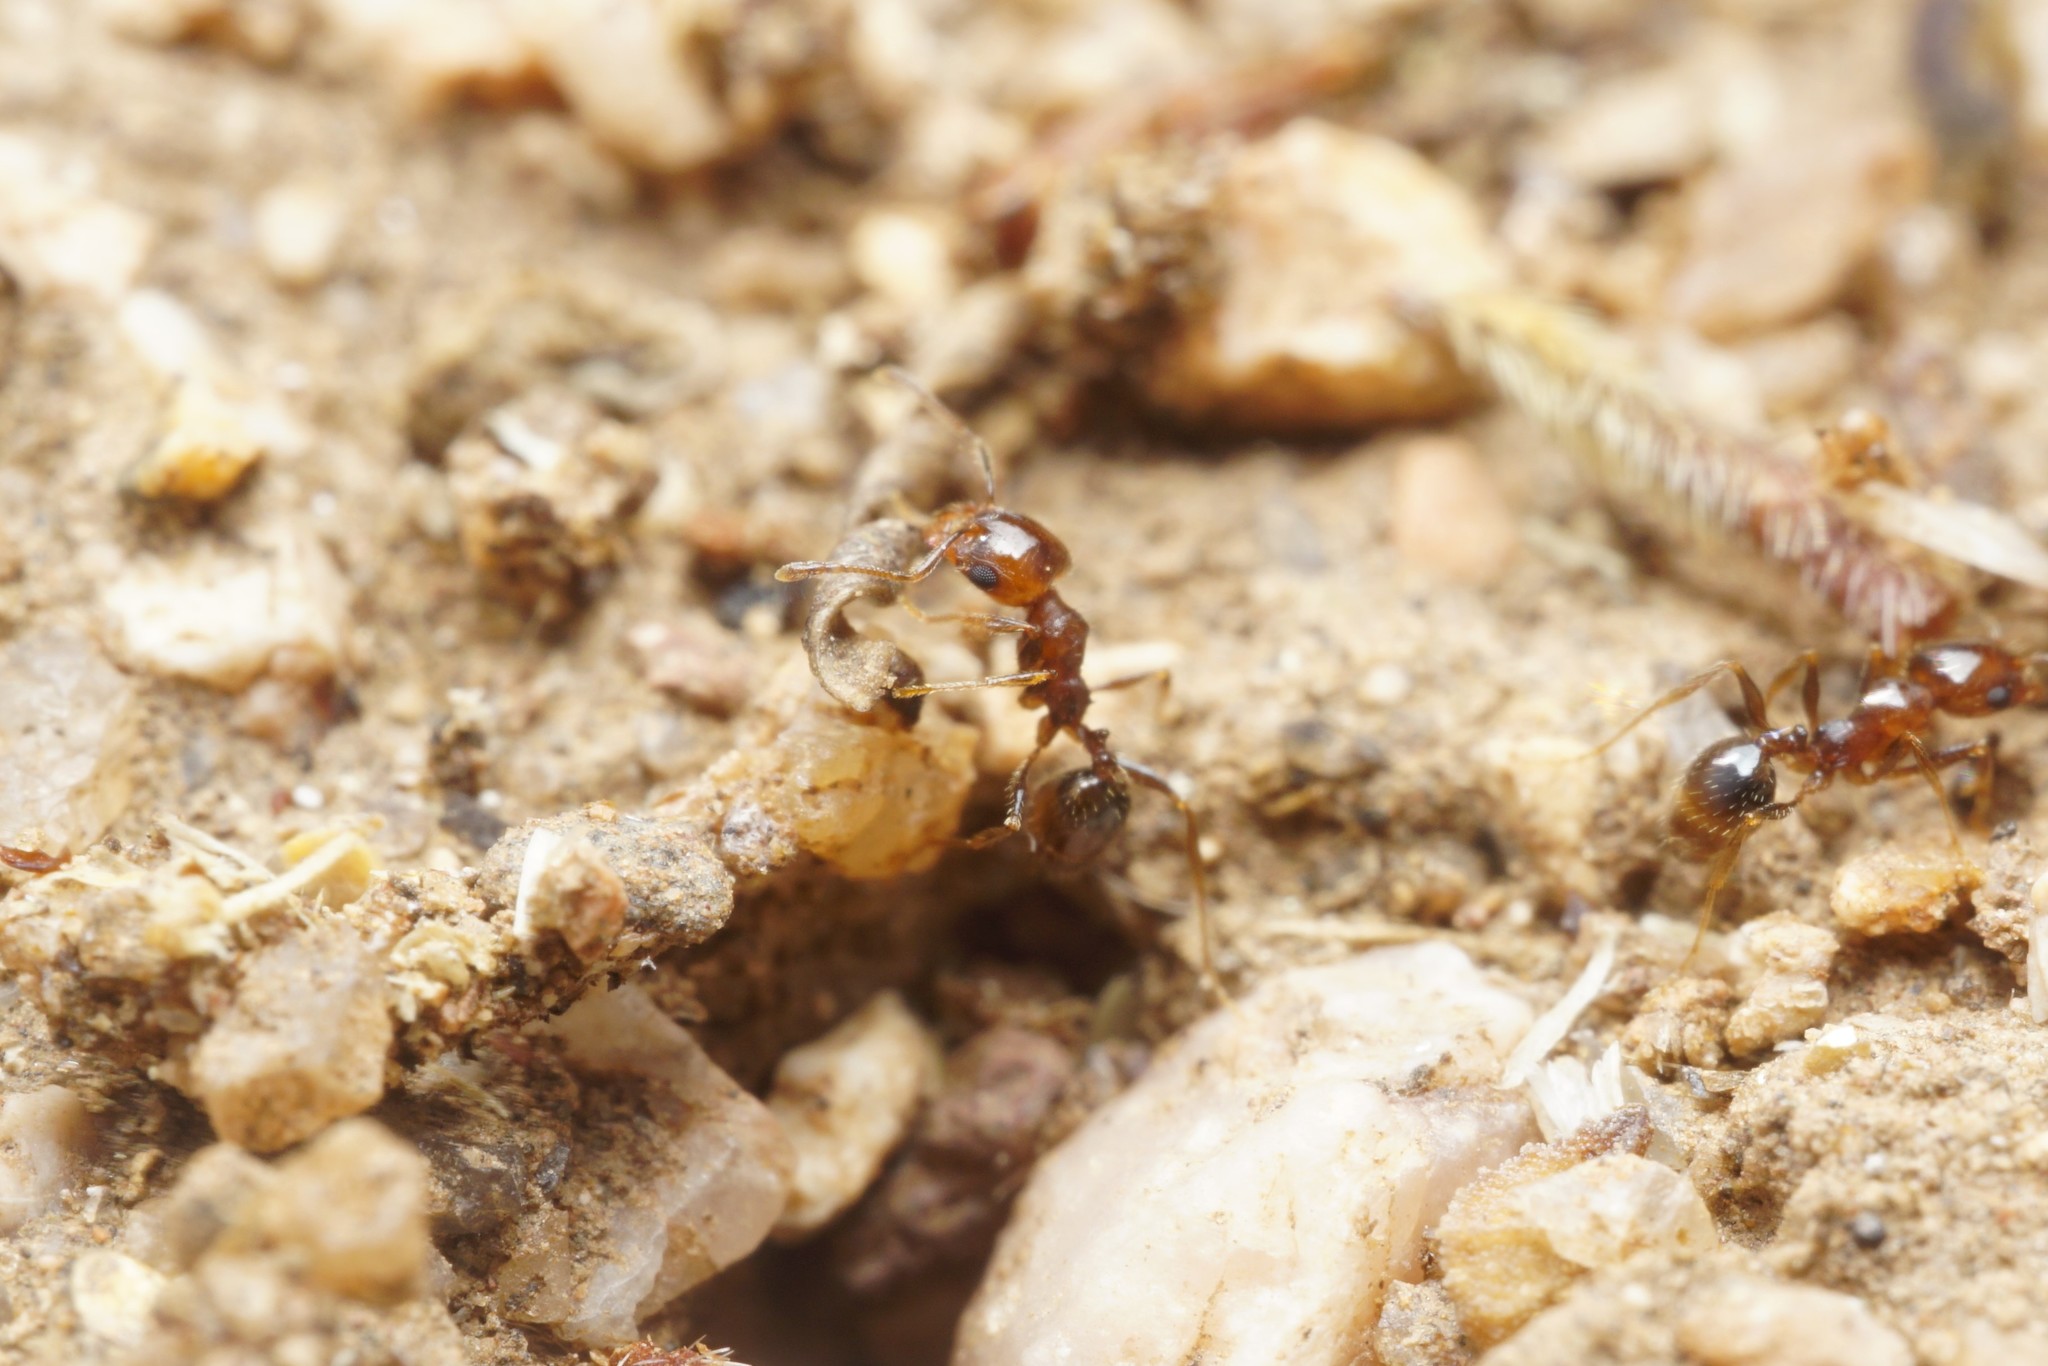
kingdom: Animalia
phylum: Arthropoda
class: Insecta
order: Hymenoptera
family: Formicidae
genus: Pheidole
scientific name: Pheidole xerophila
